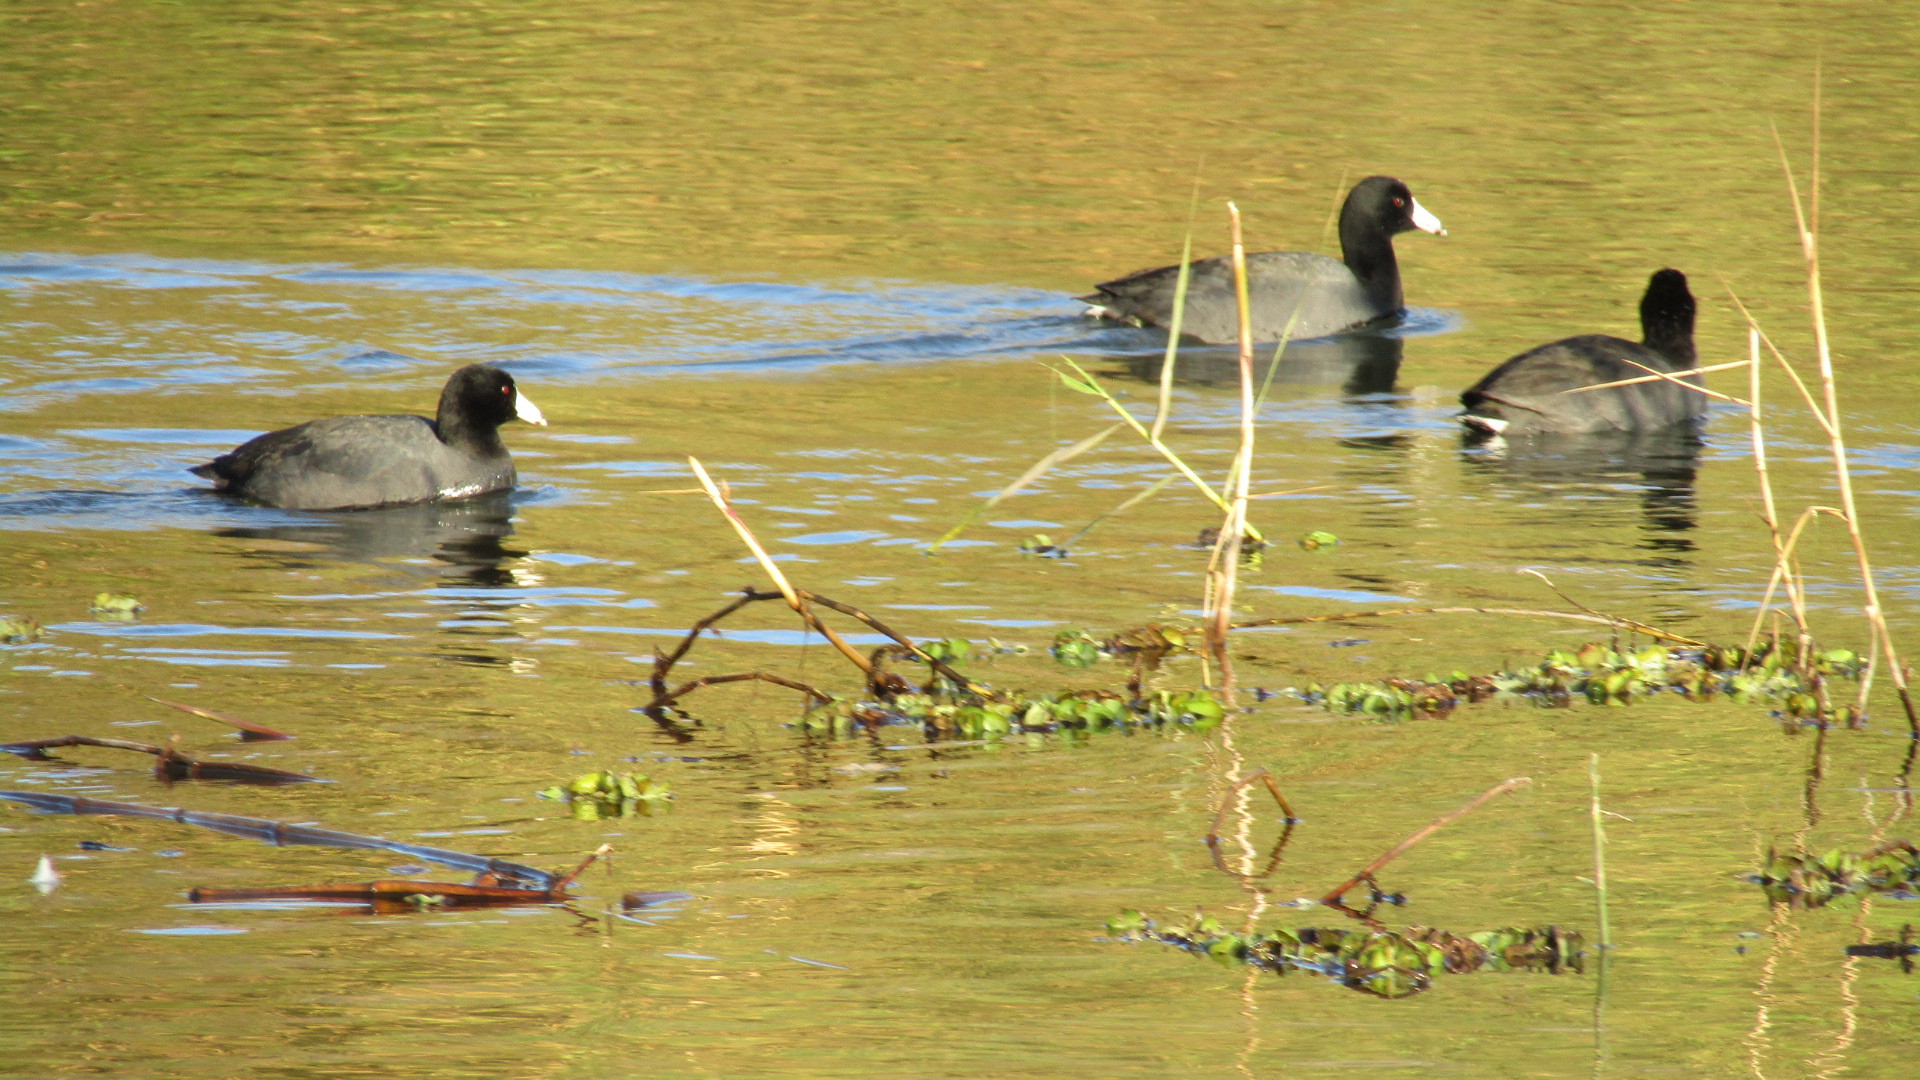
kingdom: Animalia
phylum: Chordata
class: Aves
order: Gruiformes
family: Rallidae
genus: Fulica
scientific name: Fulica americana
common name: American coot
